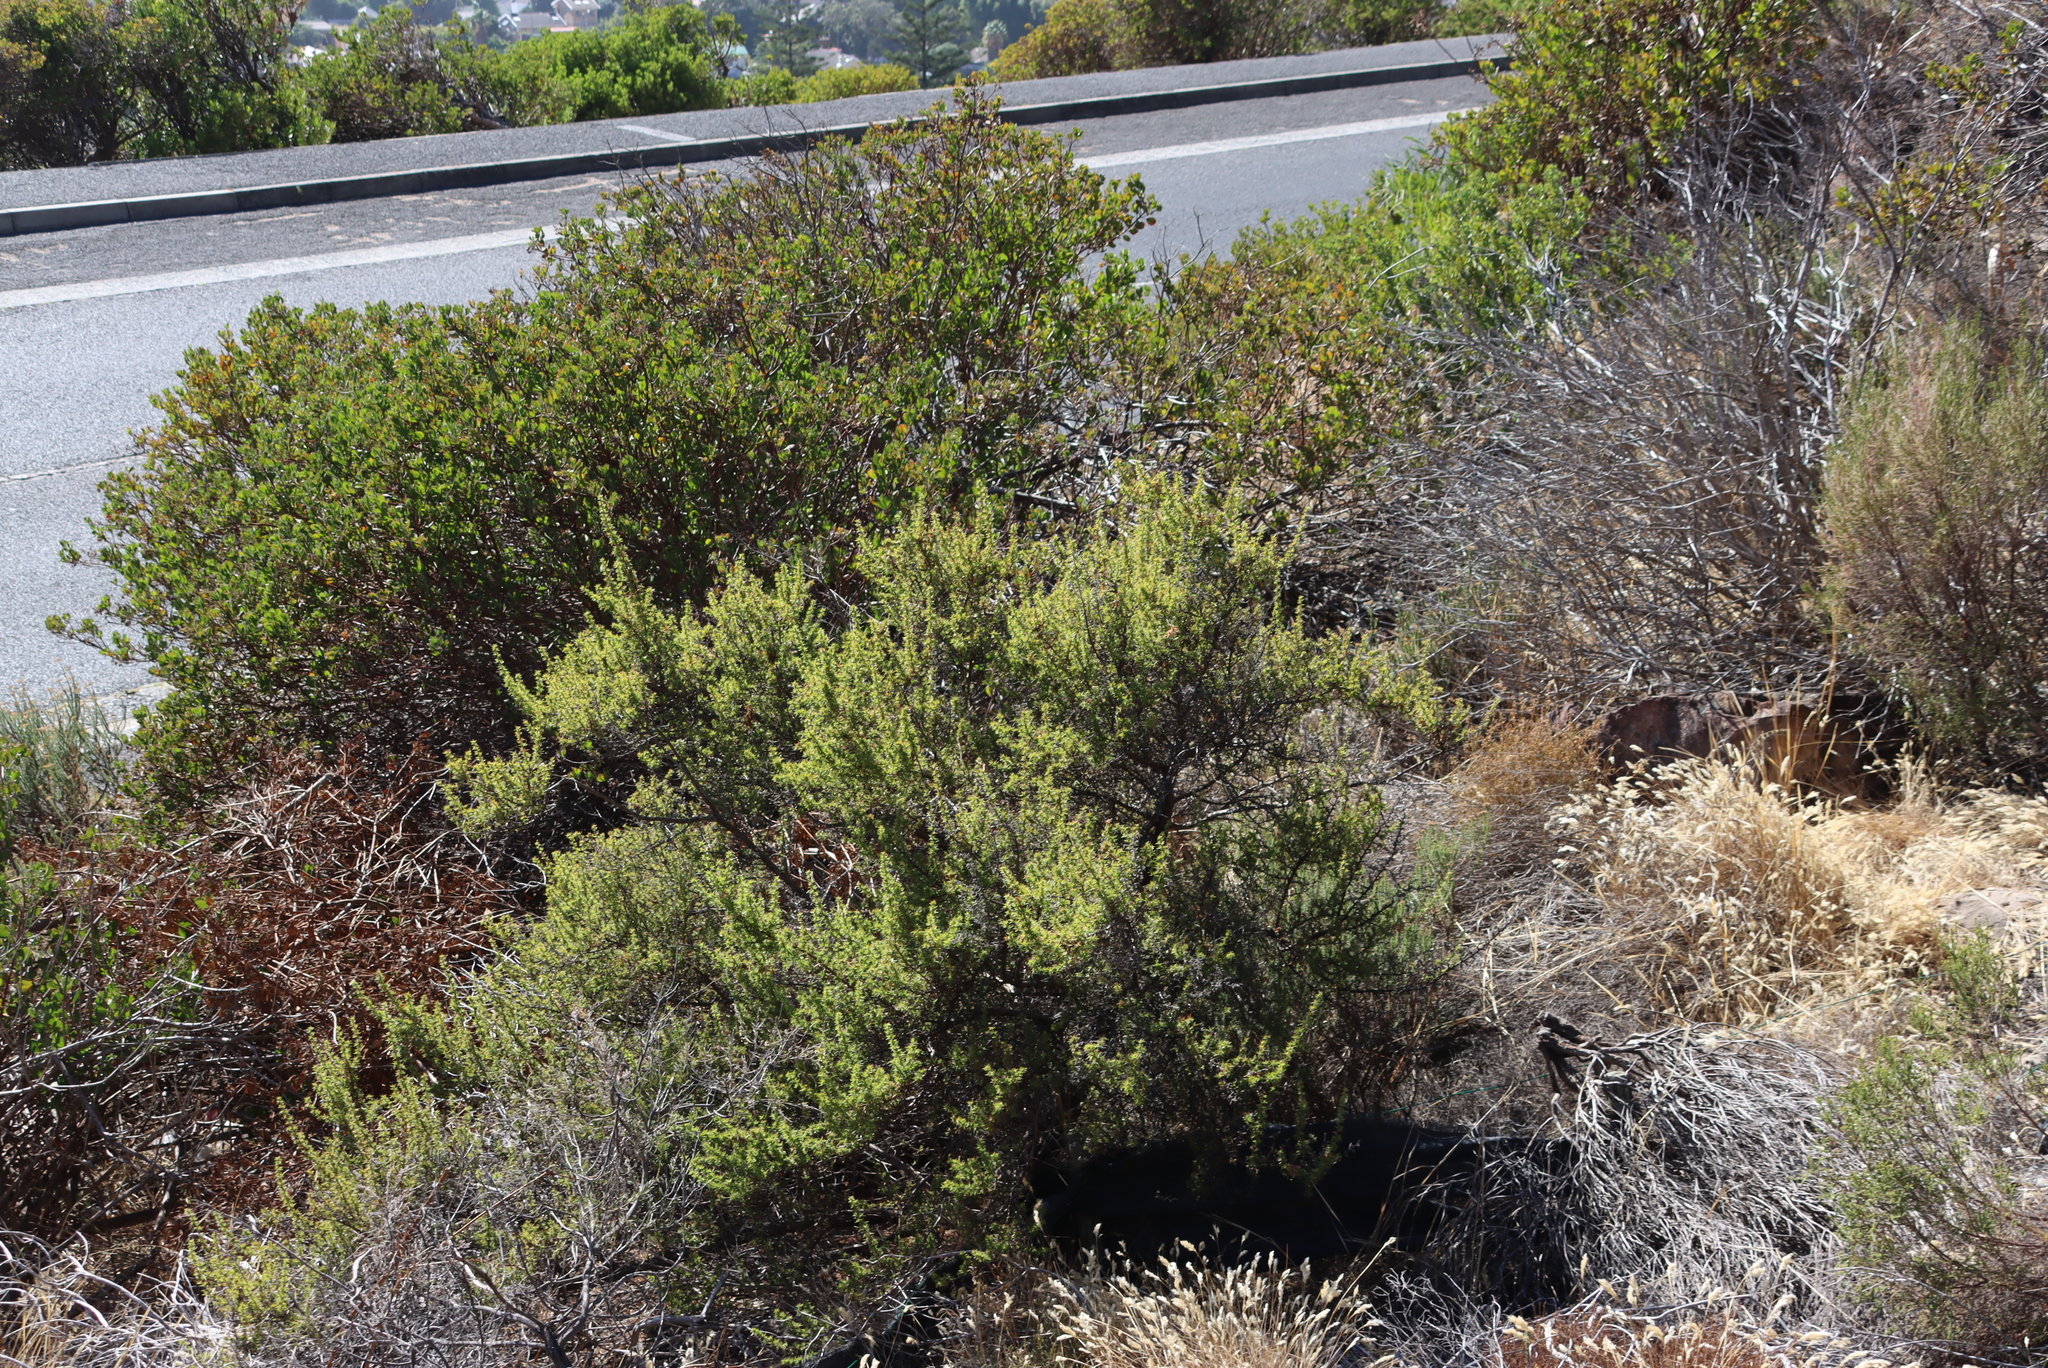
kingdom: Plantae
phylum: Tracheophyta
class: Magnoliopsida
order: Rosales
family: Rosaceae
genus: Cliffortia
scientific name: Cliffortia ruscifolia
